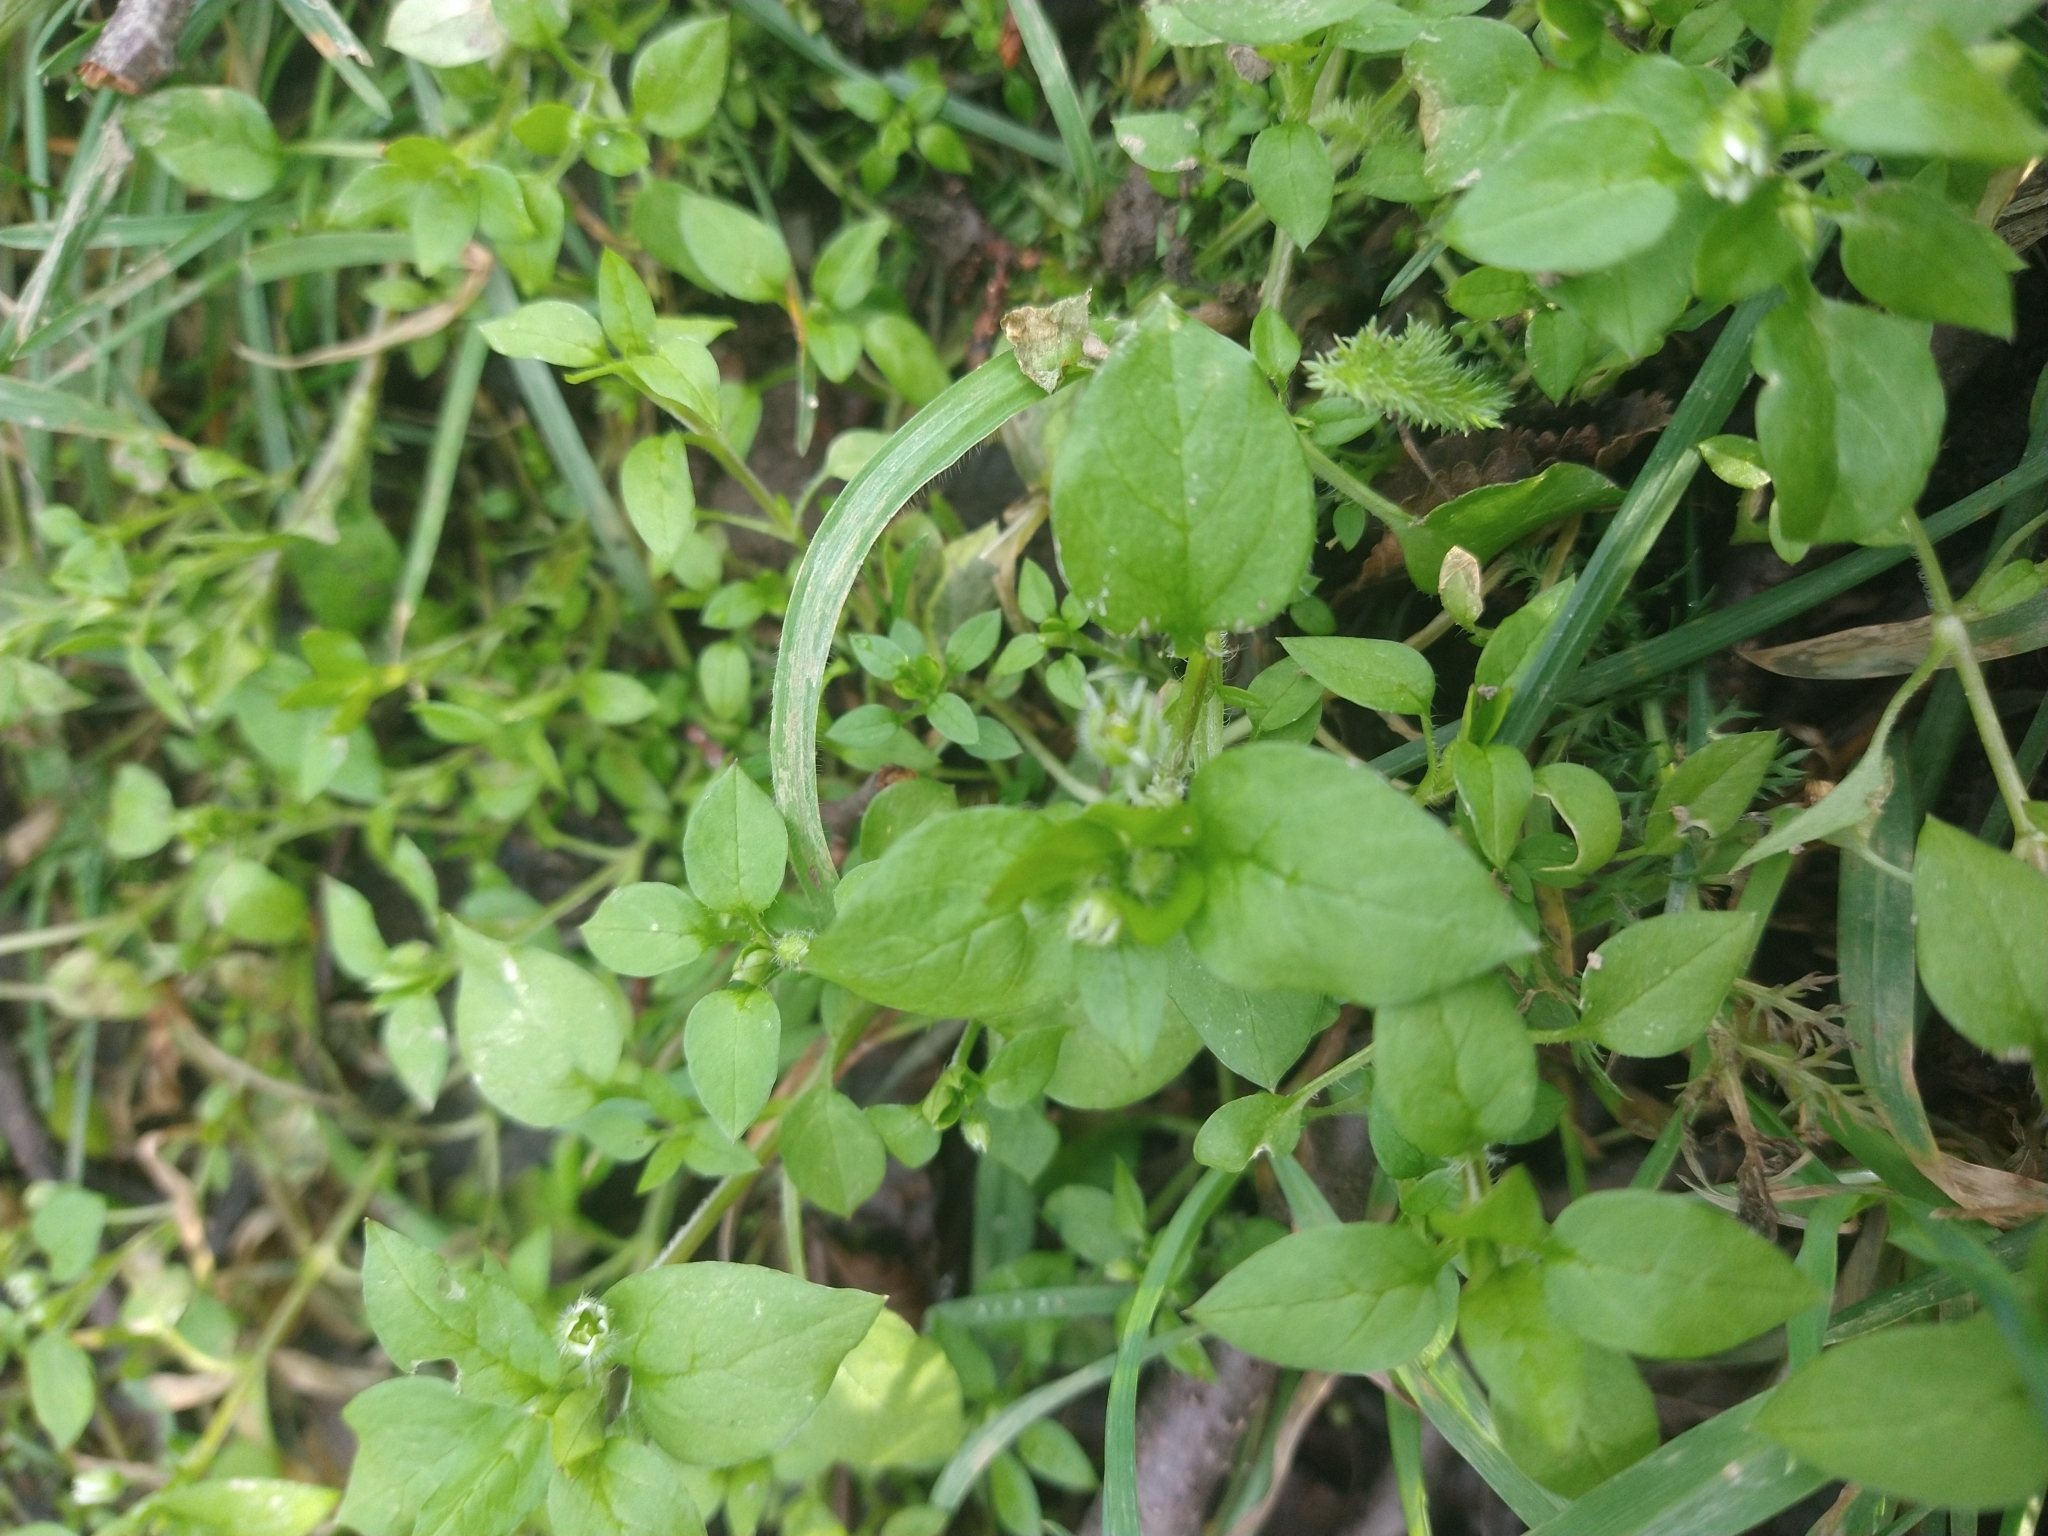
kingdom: Plantae
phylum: Tracheophyta
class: Magnoliopsida
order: Caryophyllales
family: Caryophyllaceae
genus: Stellaria
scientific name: Stellaria media
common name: Common chickweed
